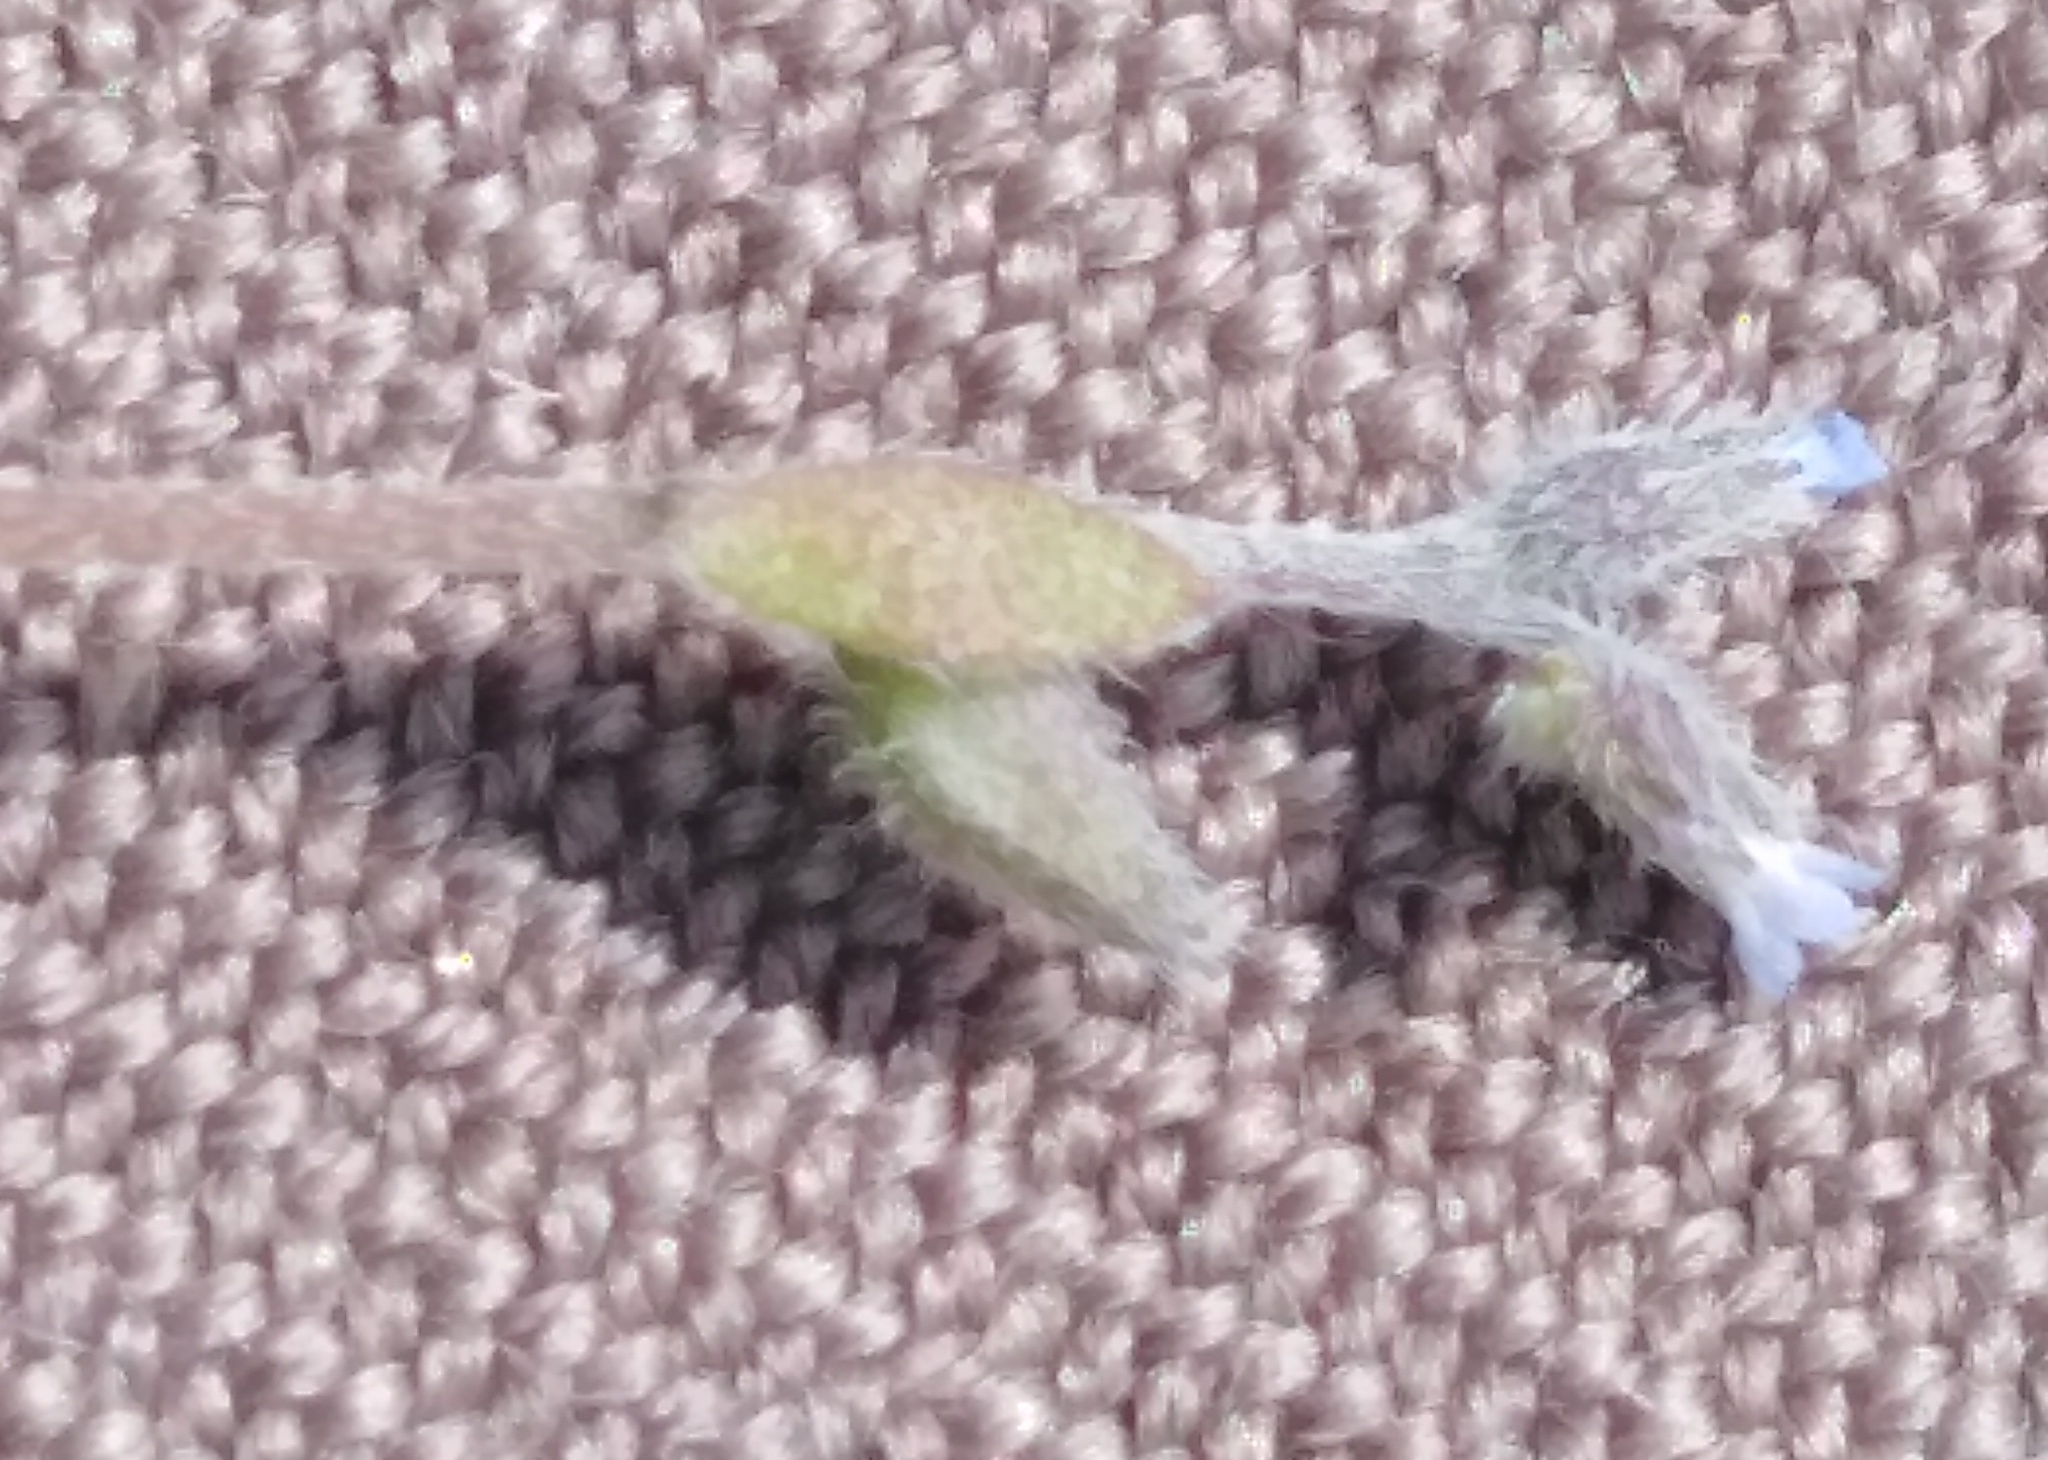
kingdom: Plantae
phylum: Tracheophyta
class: Magnoliopsida
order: Boraginales
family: Boraginaceae
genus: Myosotis
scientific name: Myosotis stricta
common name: Strict forget-me-not
